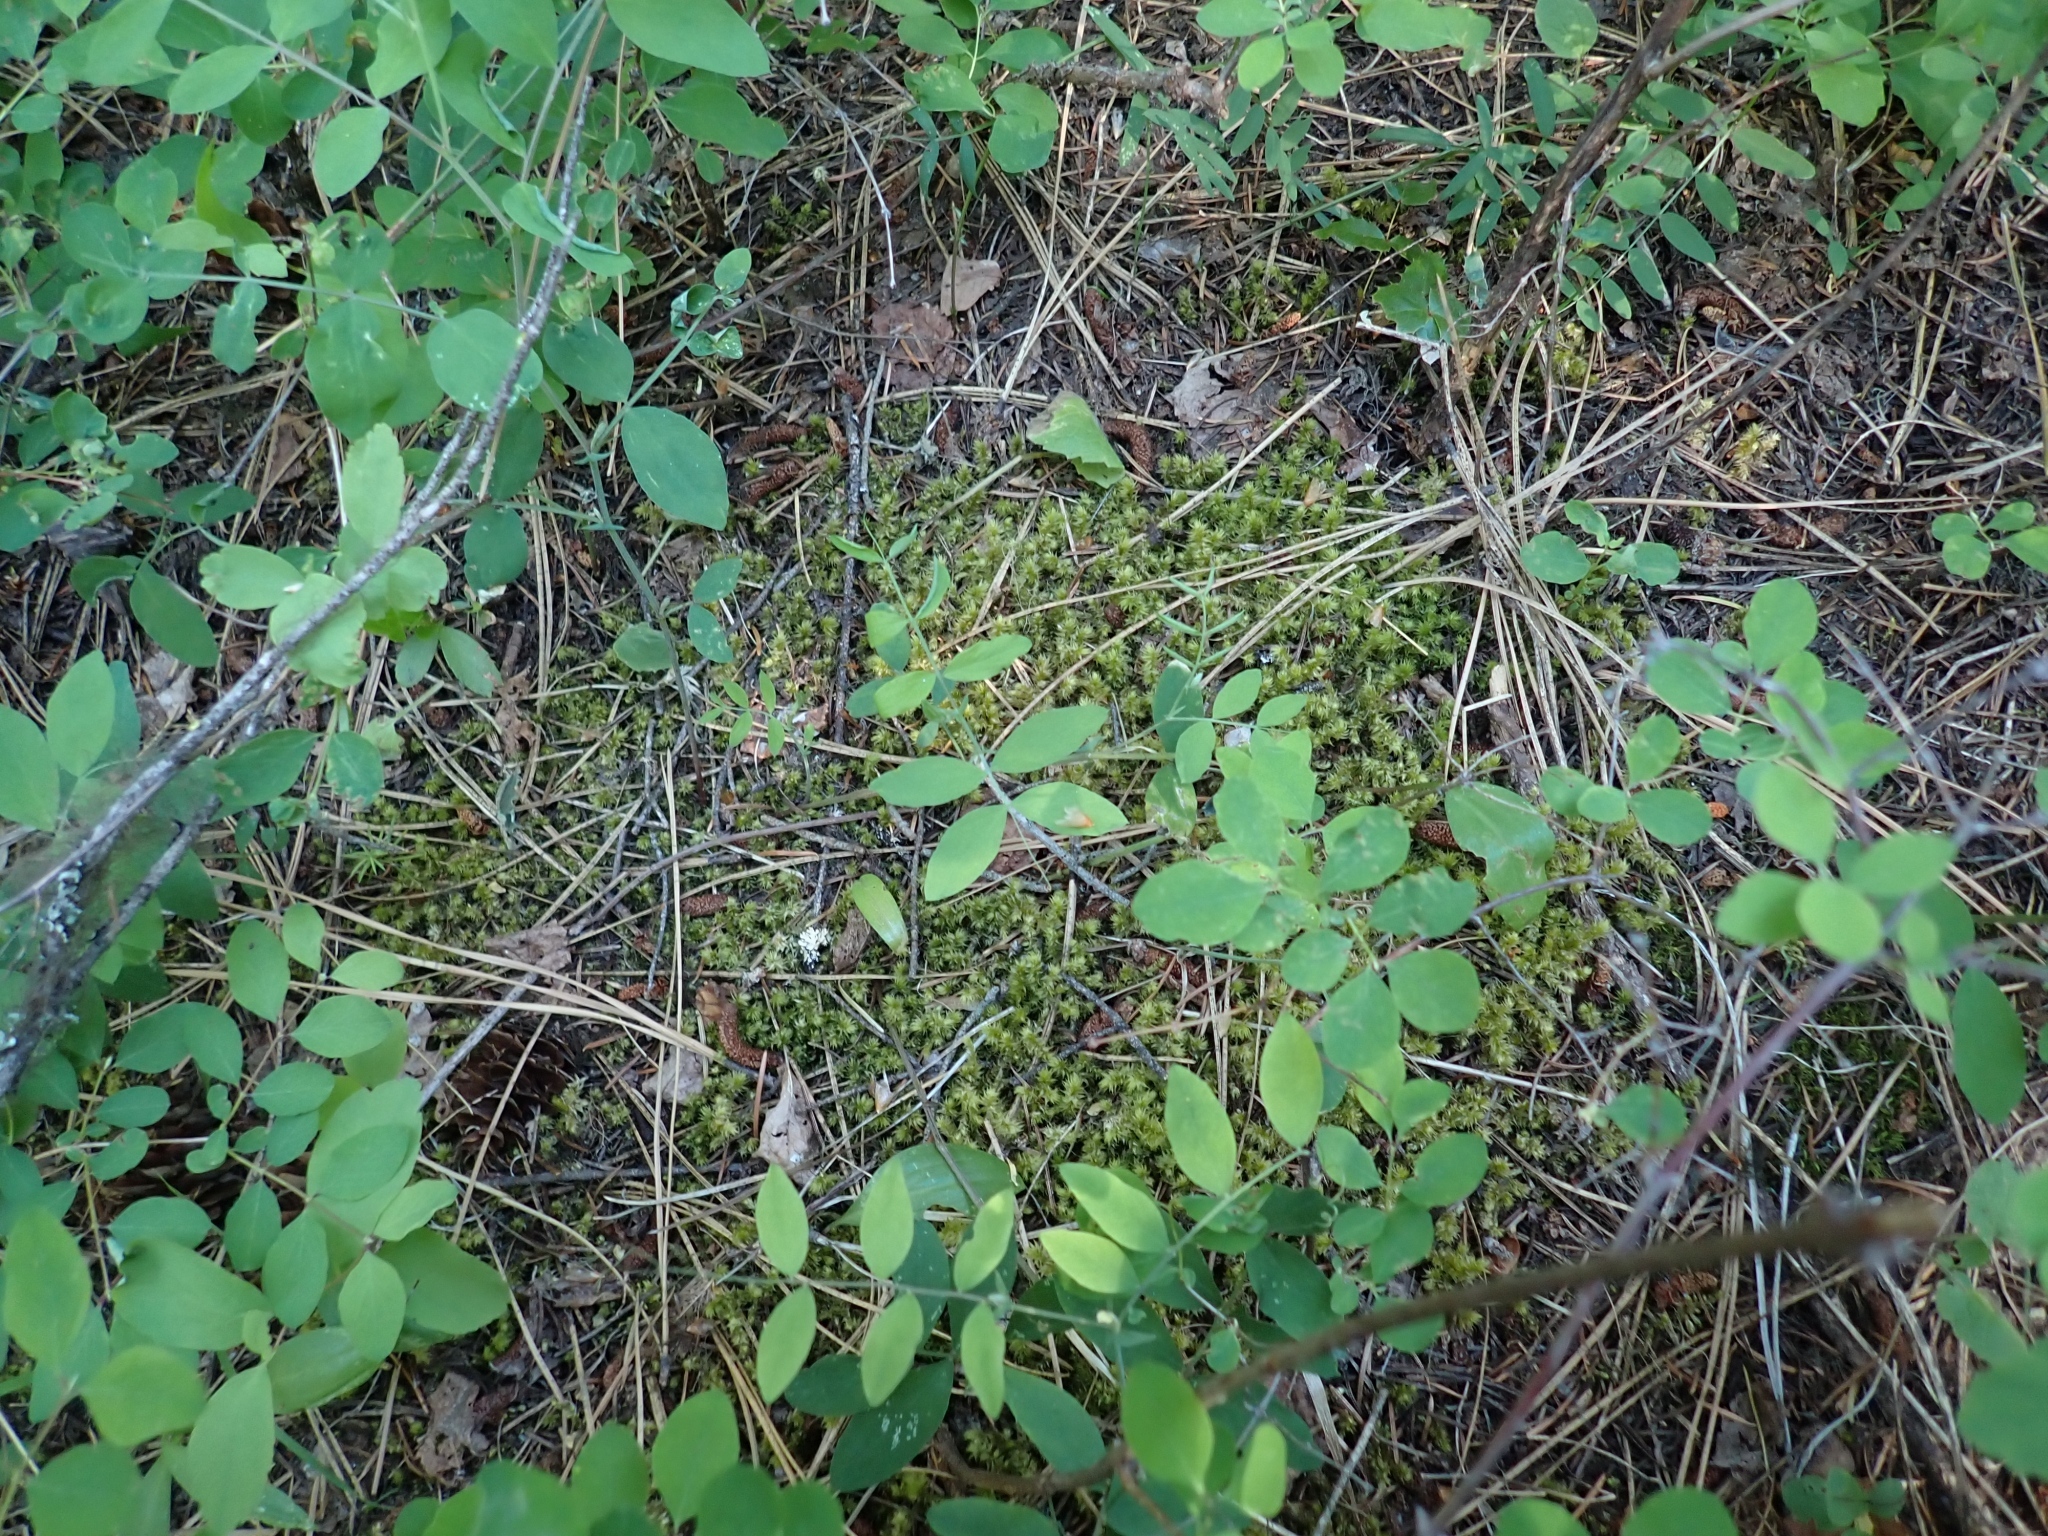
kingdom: Plantae
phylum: Bryophyta
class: Bryopsida
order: Hypnales
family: Hylocomiaceae
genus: Hylocomiadelphus
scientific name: Hylocomiadelphus triquetrus
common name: Rough goose neck moss
